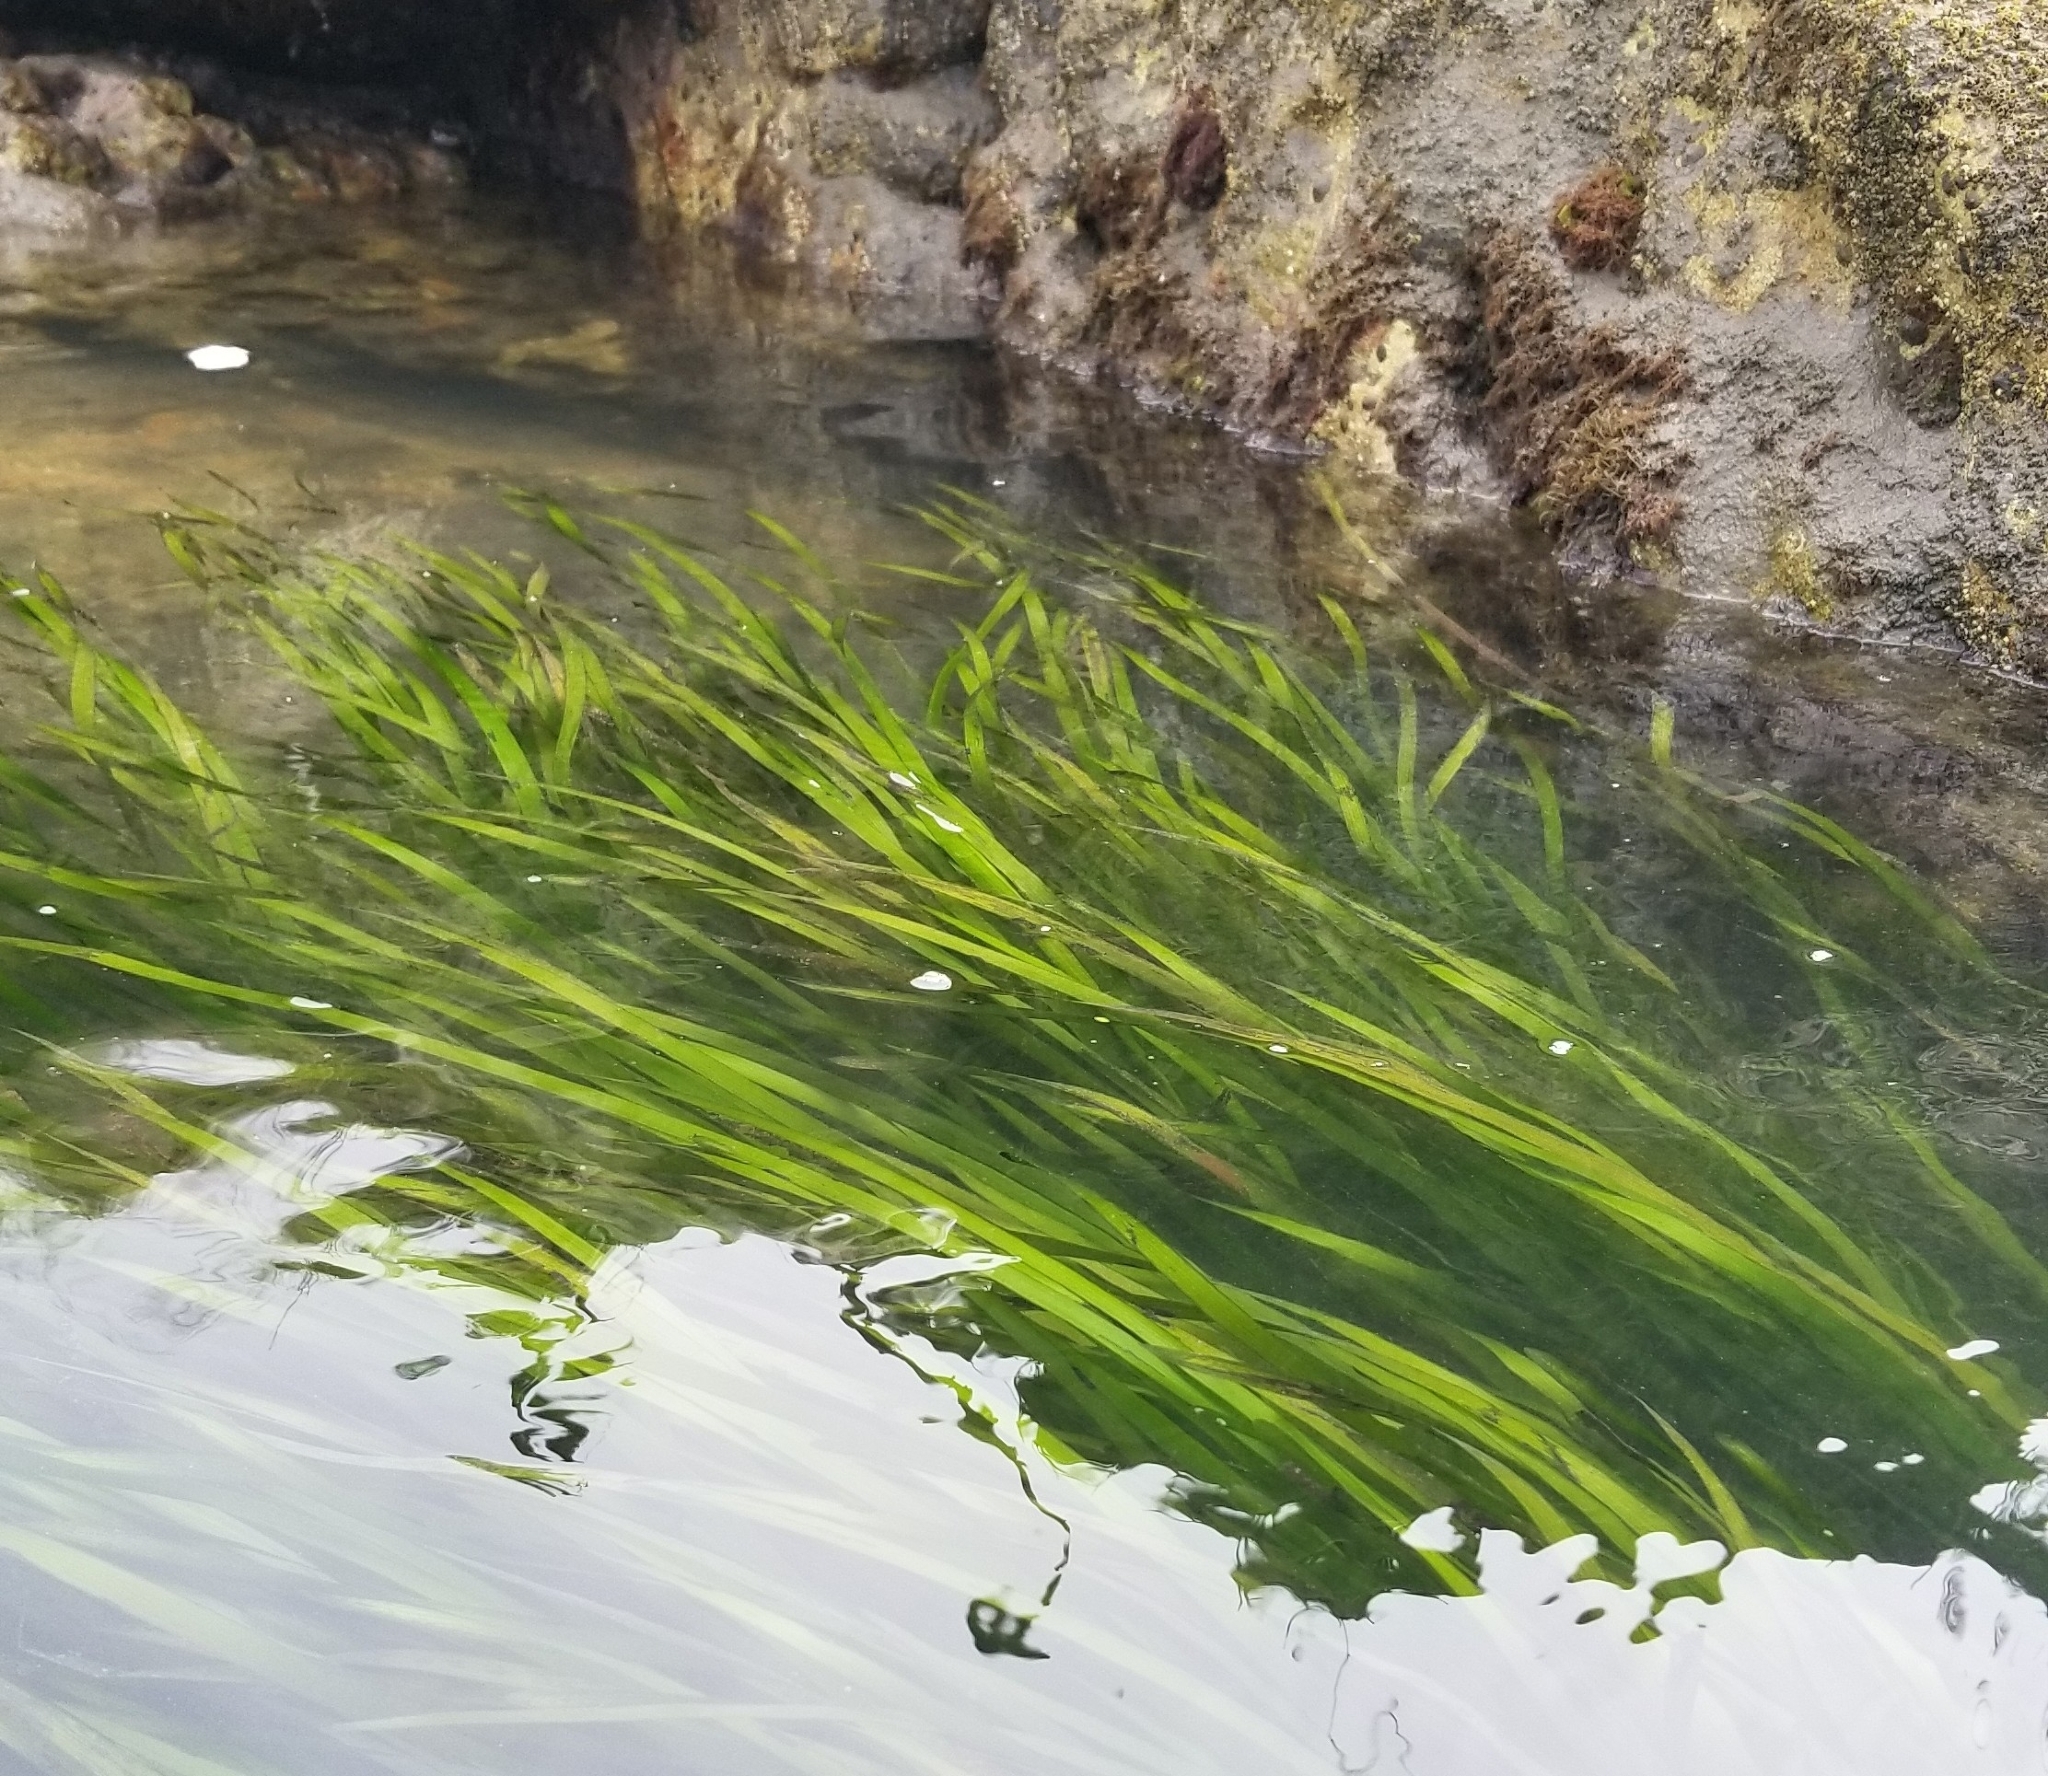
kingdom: Plantae
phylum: Tracheophyta
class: Liliopsida
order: Alismatales
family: Zosteraceae
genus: Zostera
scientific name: Zostera marina
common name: Eelgrass
